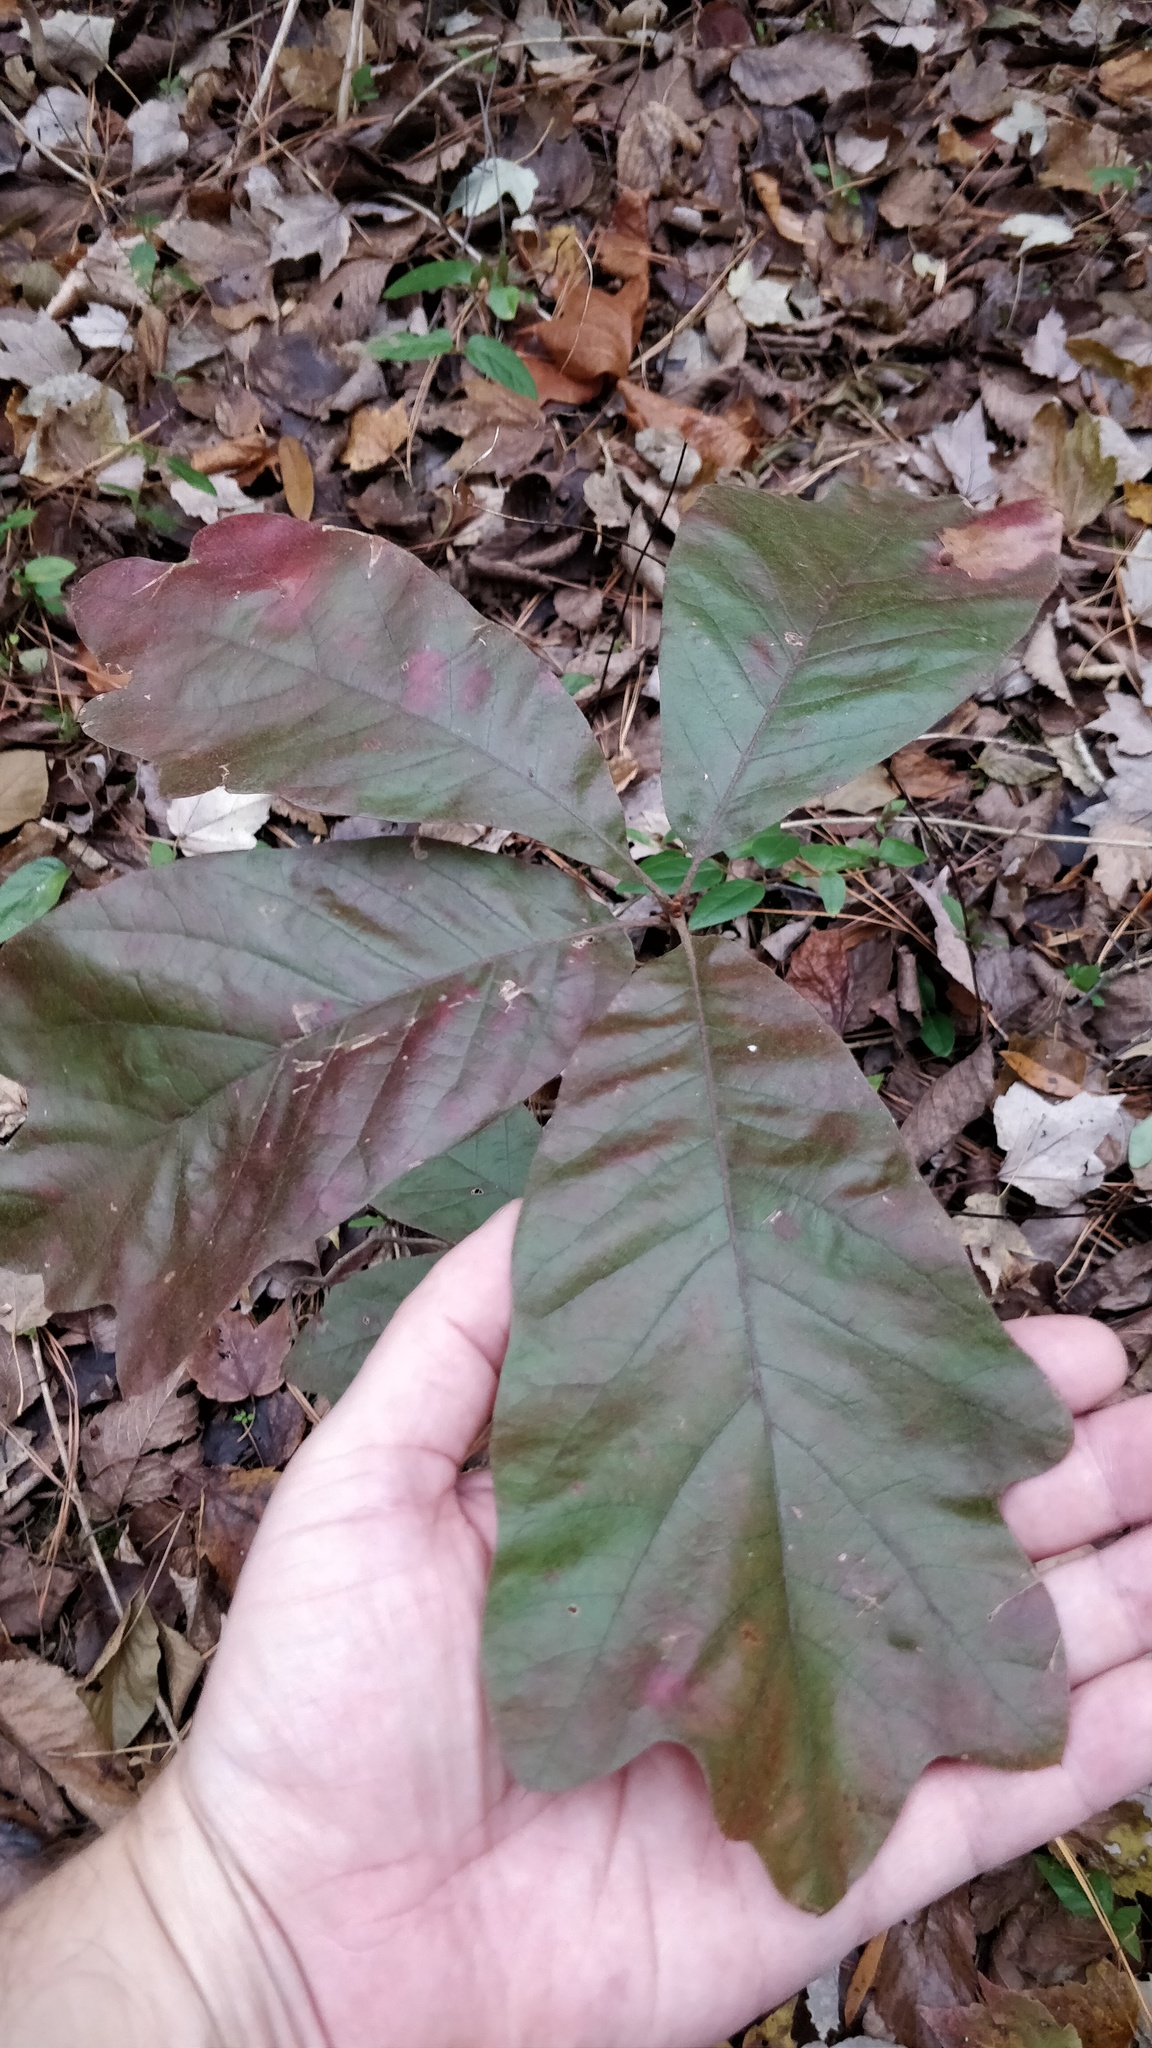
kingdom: Plantae
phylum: Tracheophyta
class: Magnoliopsida
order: Fagales
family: Fagaceae
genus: Quercus
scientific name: Quercus falcata
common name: Southern red oak
